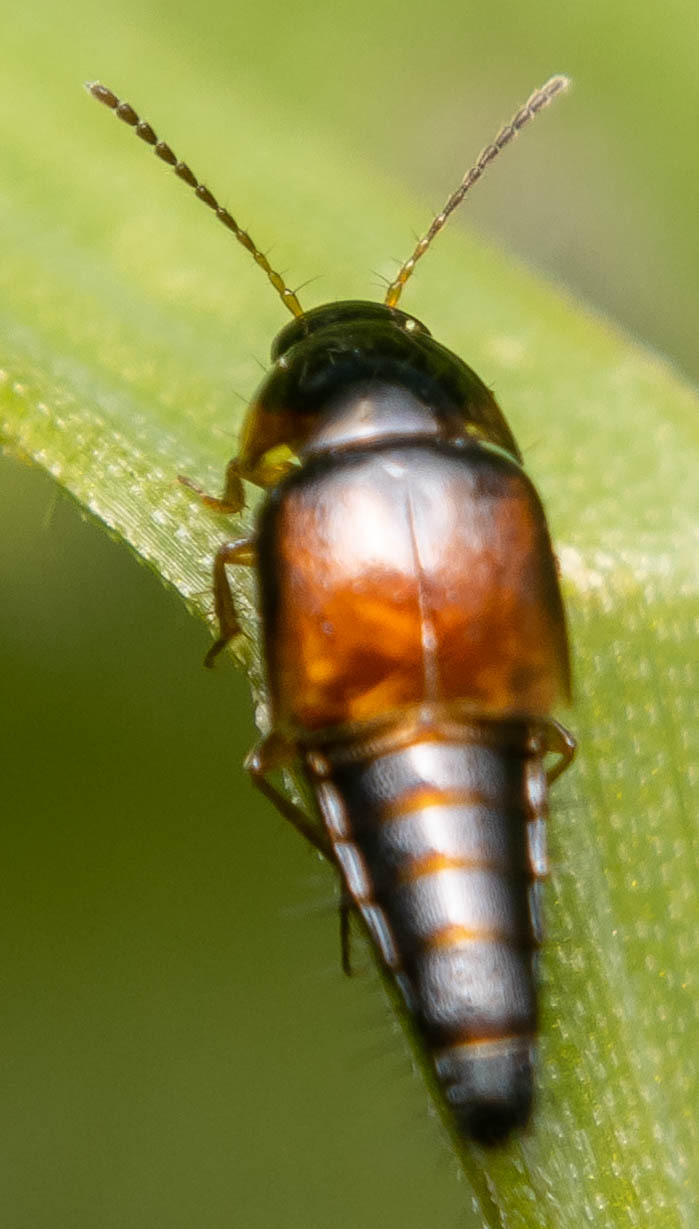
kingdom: Animalia
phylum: Arthropoda
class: Insecta
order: Coleoptera
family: Staphylinidae
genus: Tachyporus
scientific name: Tachyporus hypnorum
